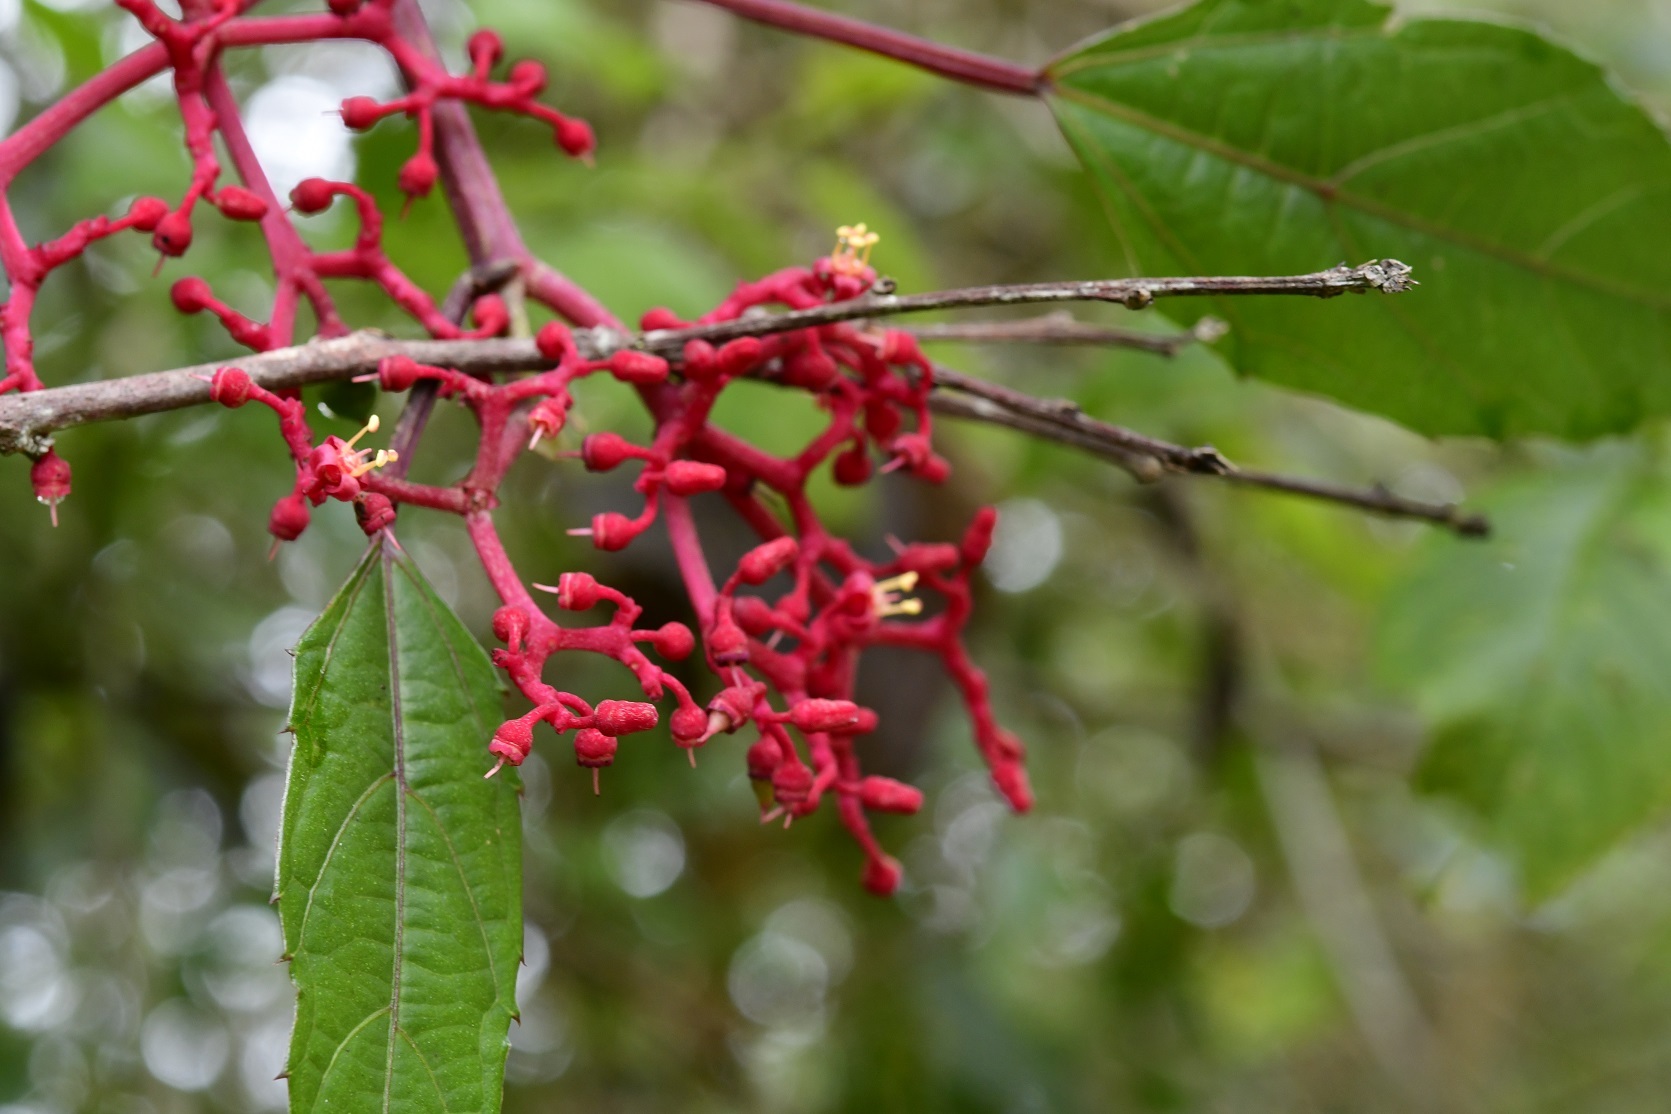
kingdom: Plantae
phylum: Tracheophyta
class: Magnoliopsida
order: Vitales
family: Vitaceae
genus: Cissus
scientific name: Cissus biformifolia
